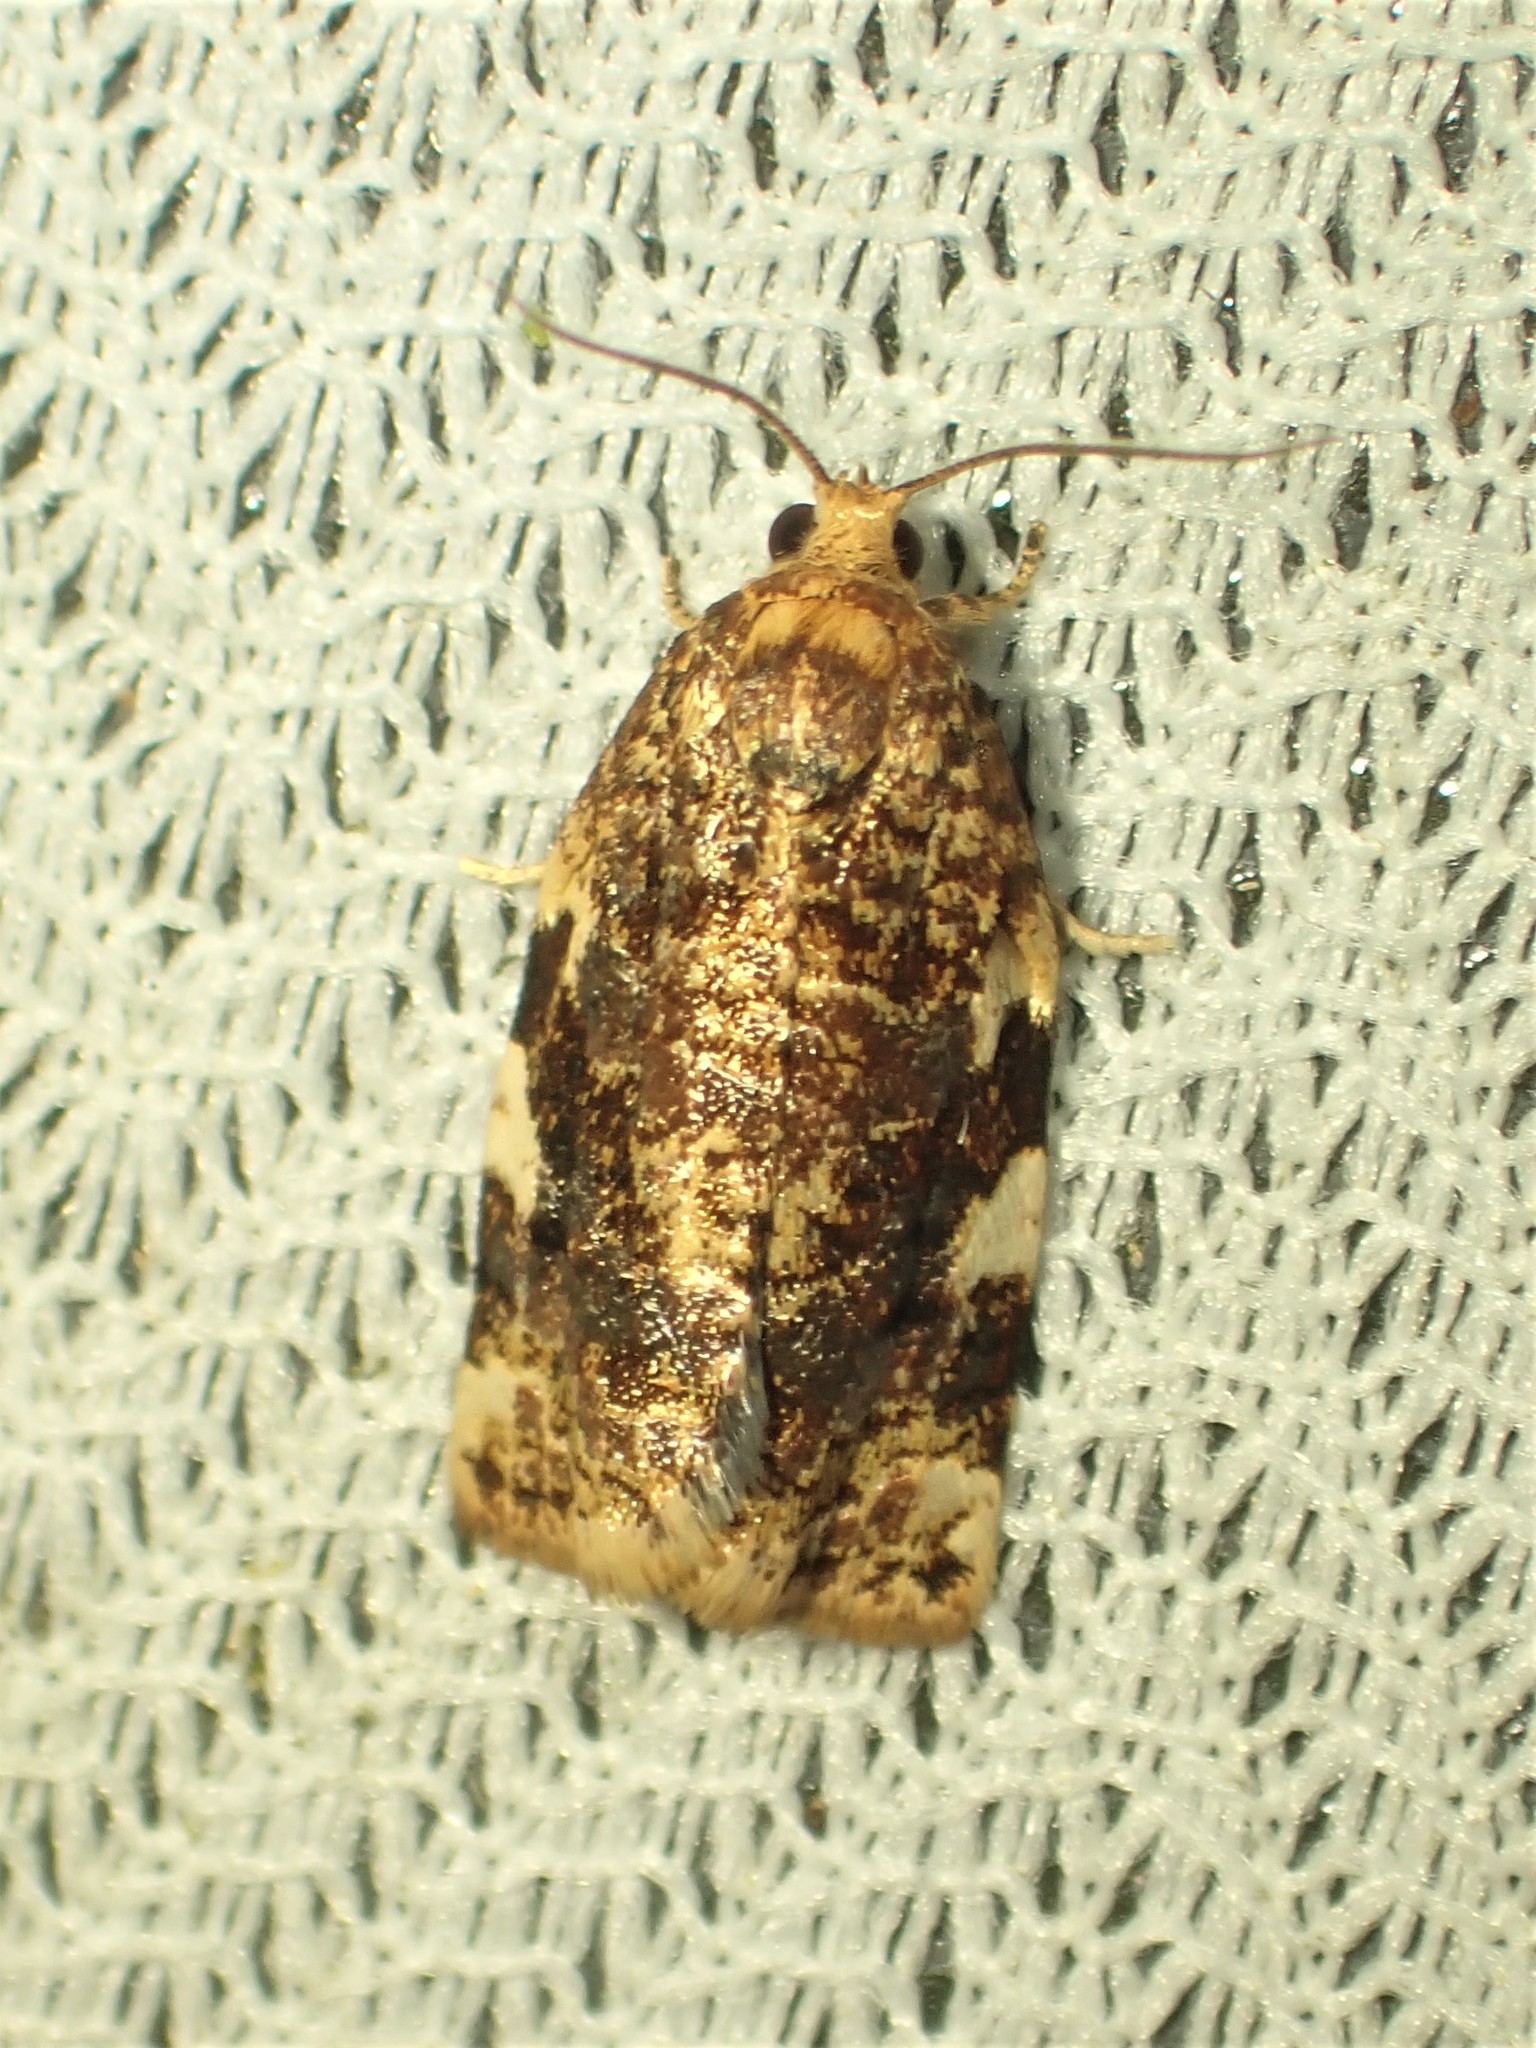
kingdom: Animalia
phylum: Arthropoda
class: Insecta
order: Lepidoptera
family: Tortricidae
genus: Archips
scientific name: Archips argyrospila
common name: Fruit-tree leafroller moth
